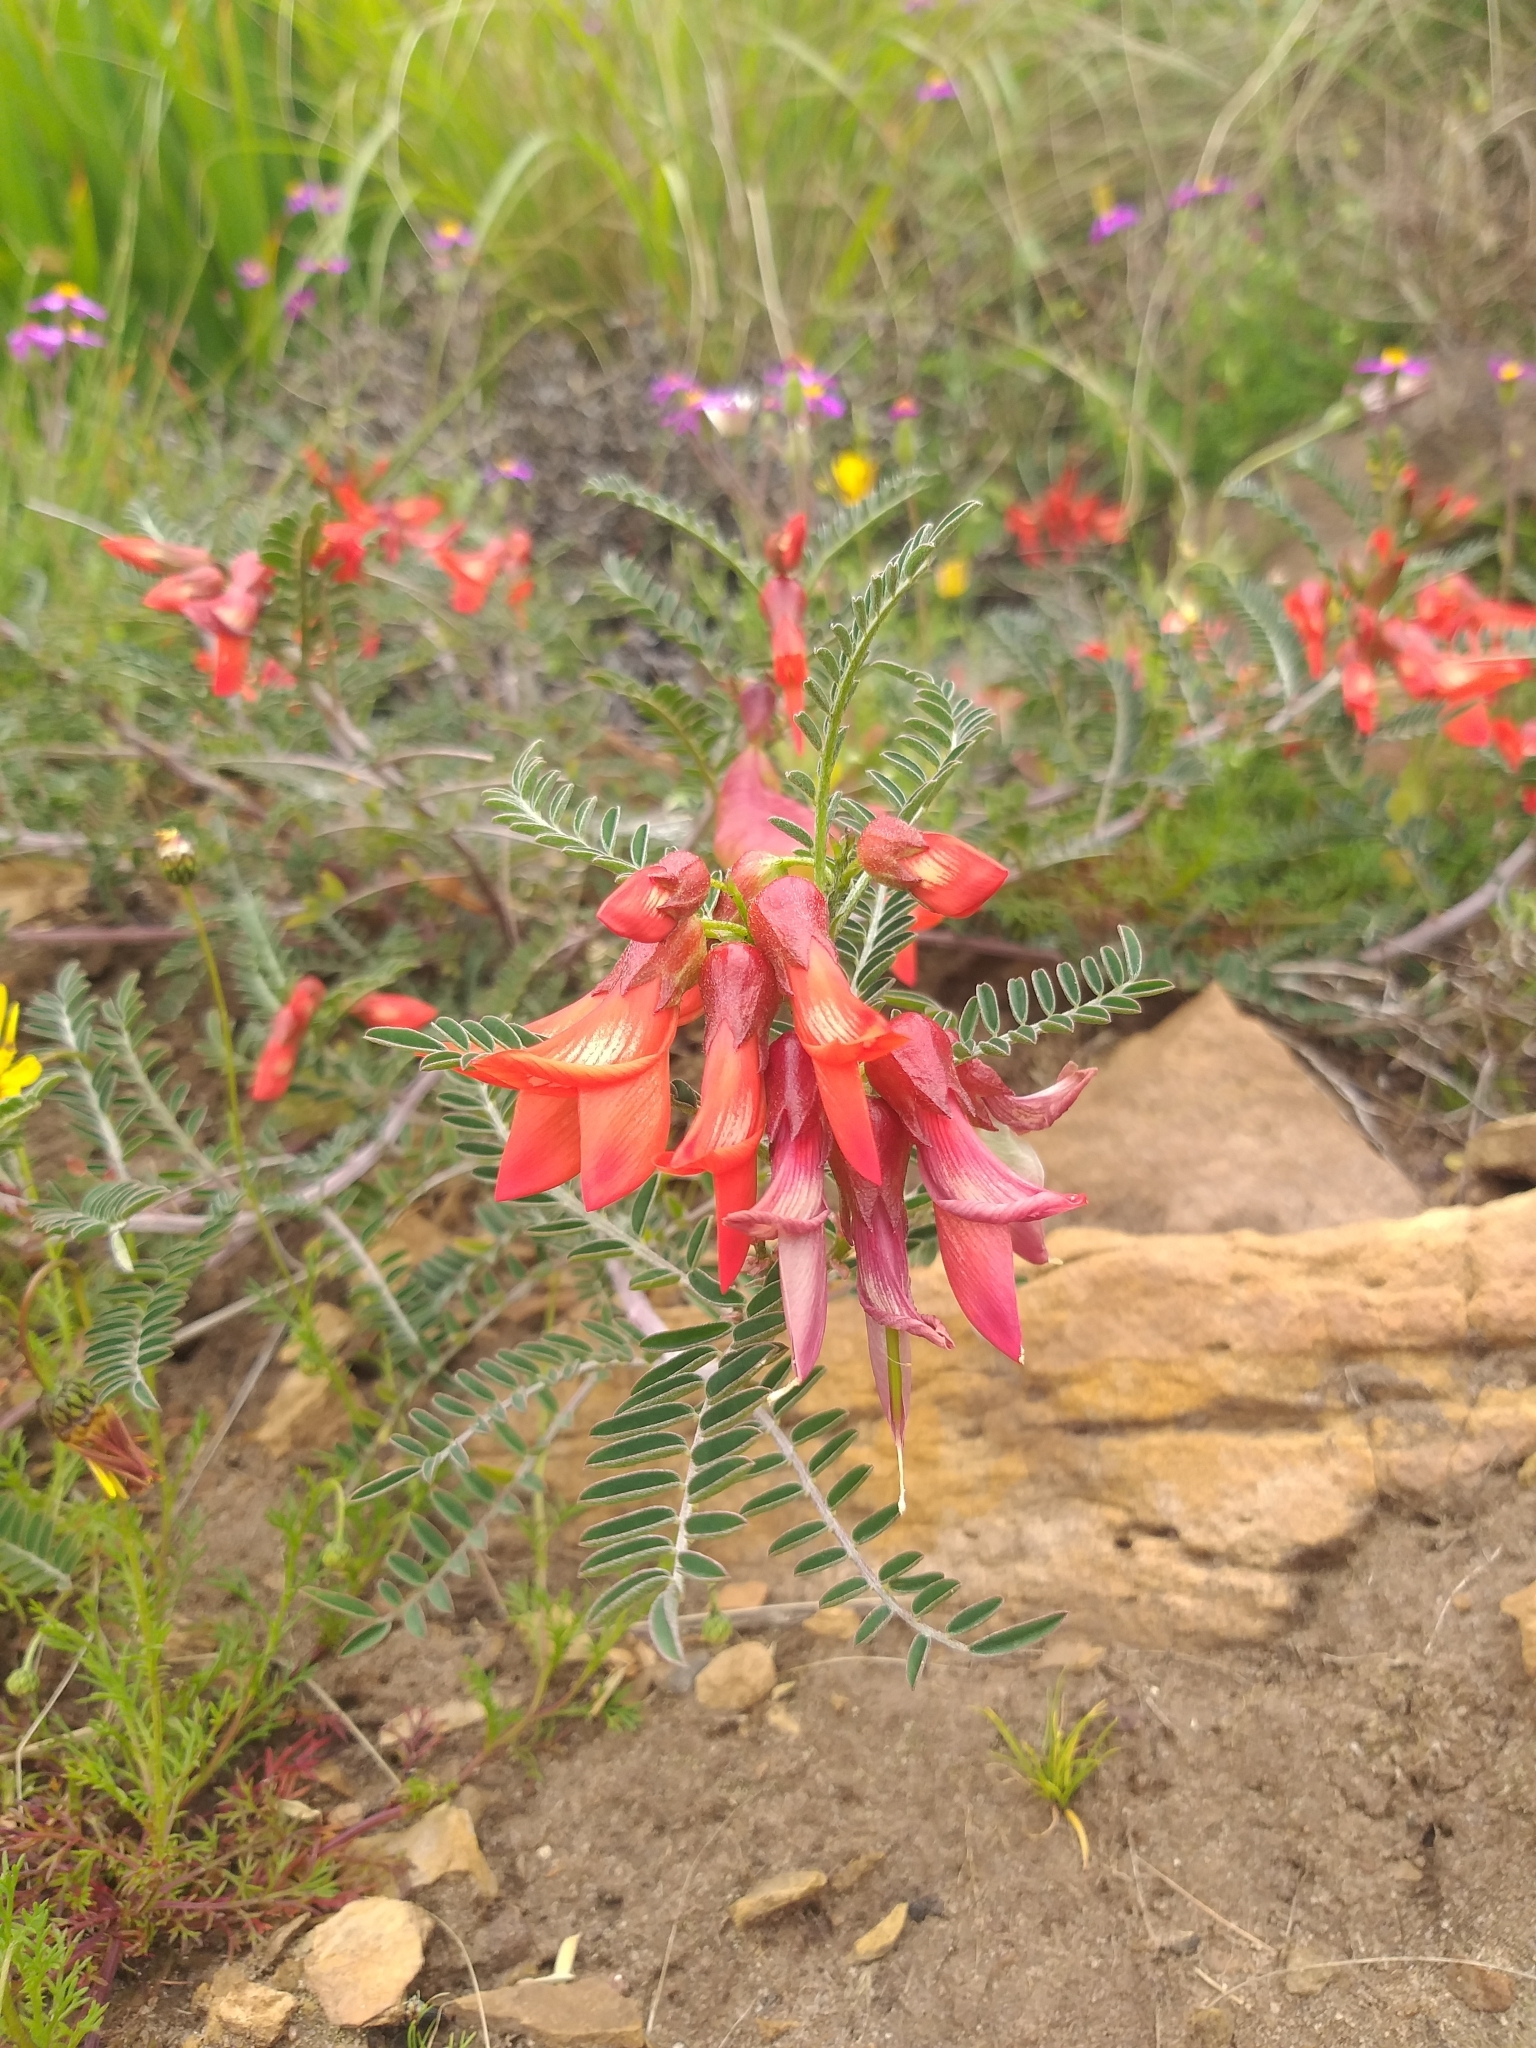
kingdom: Plantae
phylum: Tracheophyta
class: Magnoliopsida
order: Fabales
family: Fabaceae
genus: Lessertia
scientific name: Lessertia frutescens
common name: Balloon-pea
